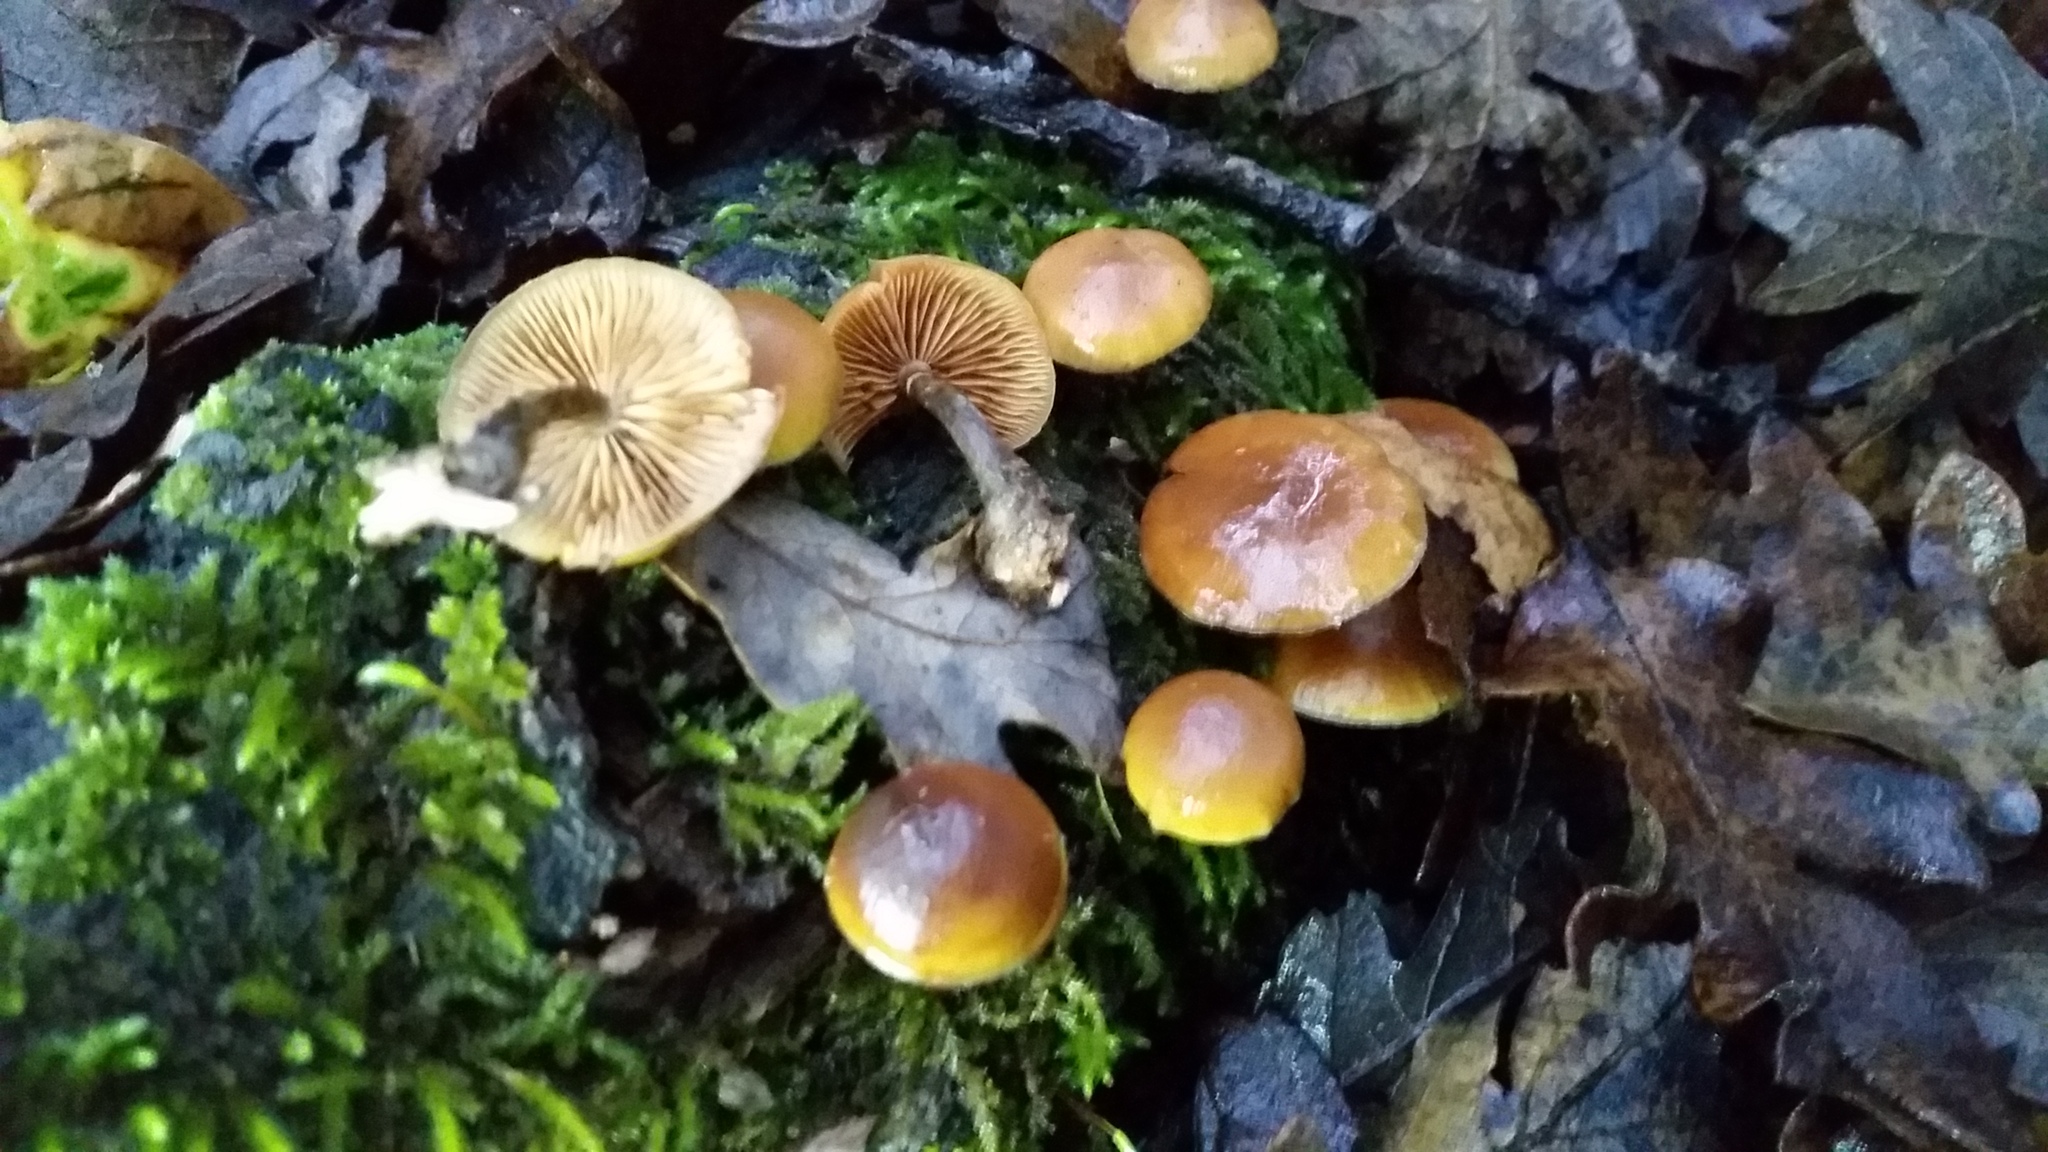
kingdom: Fungi
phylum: Basidiomycota
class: Agaricomycetes
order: Agaricales
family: Hymenogastraceae
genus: Galerina
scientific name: Galerina marginata
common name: Funeral bell
